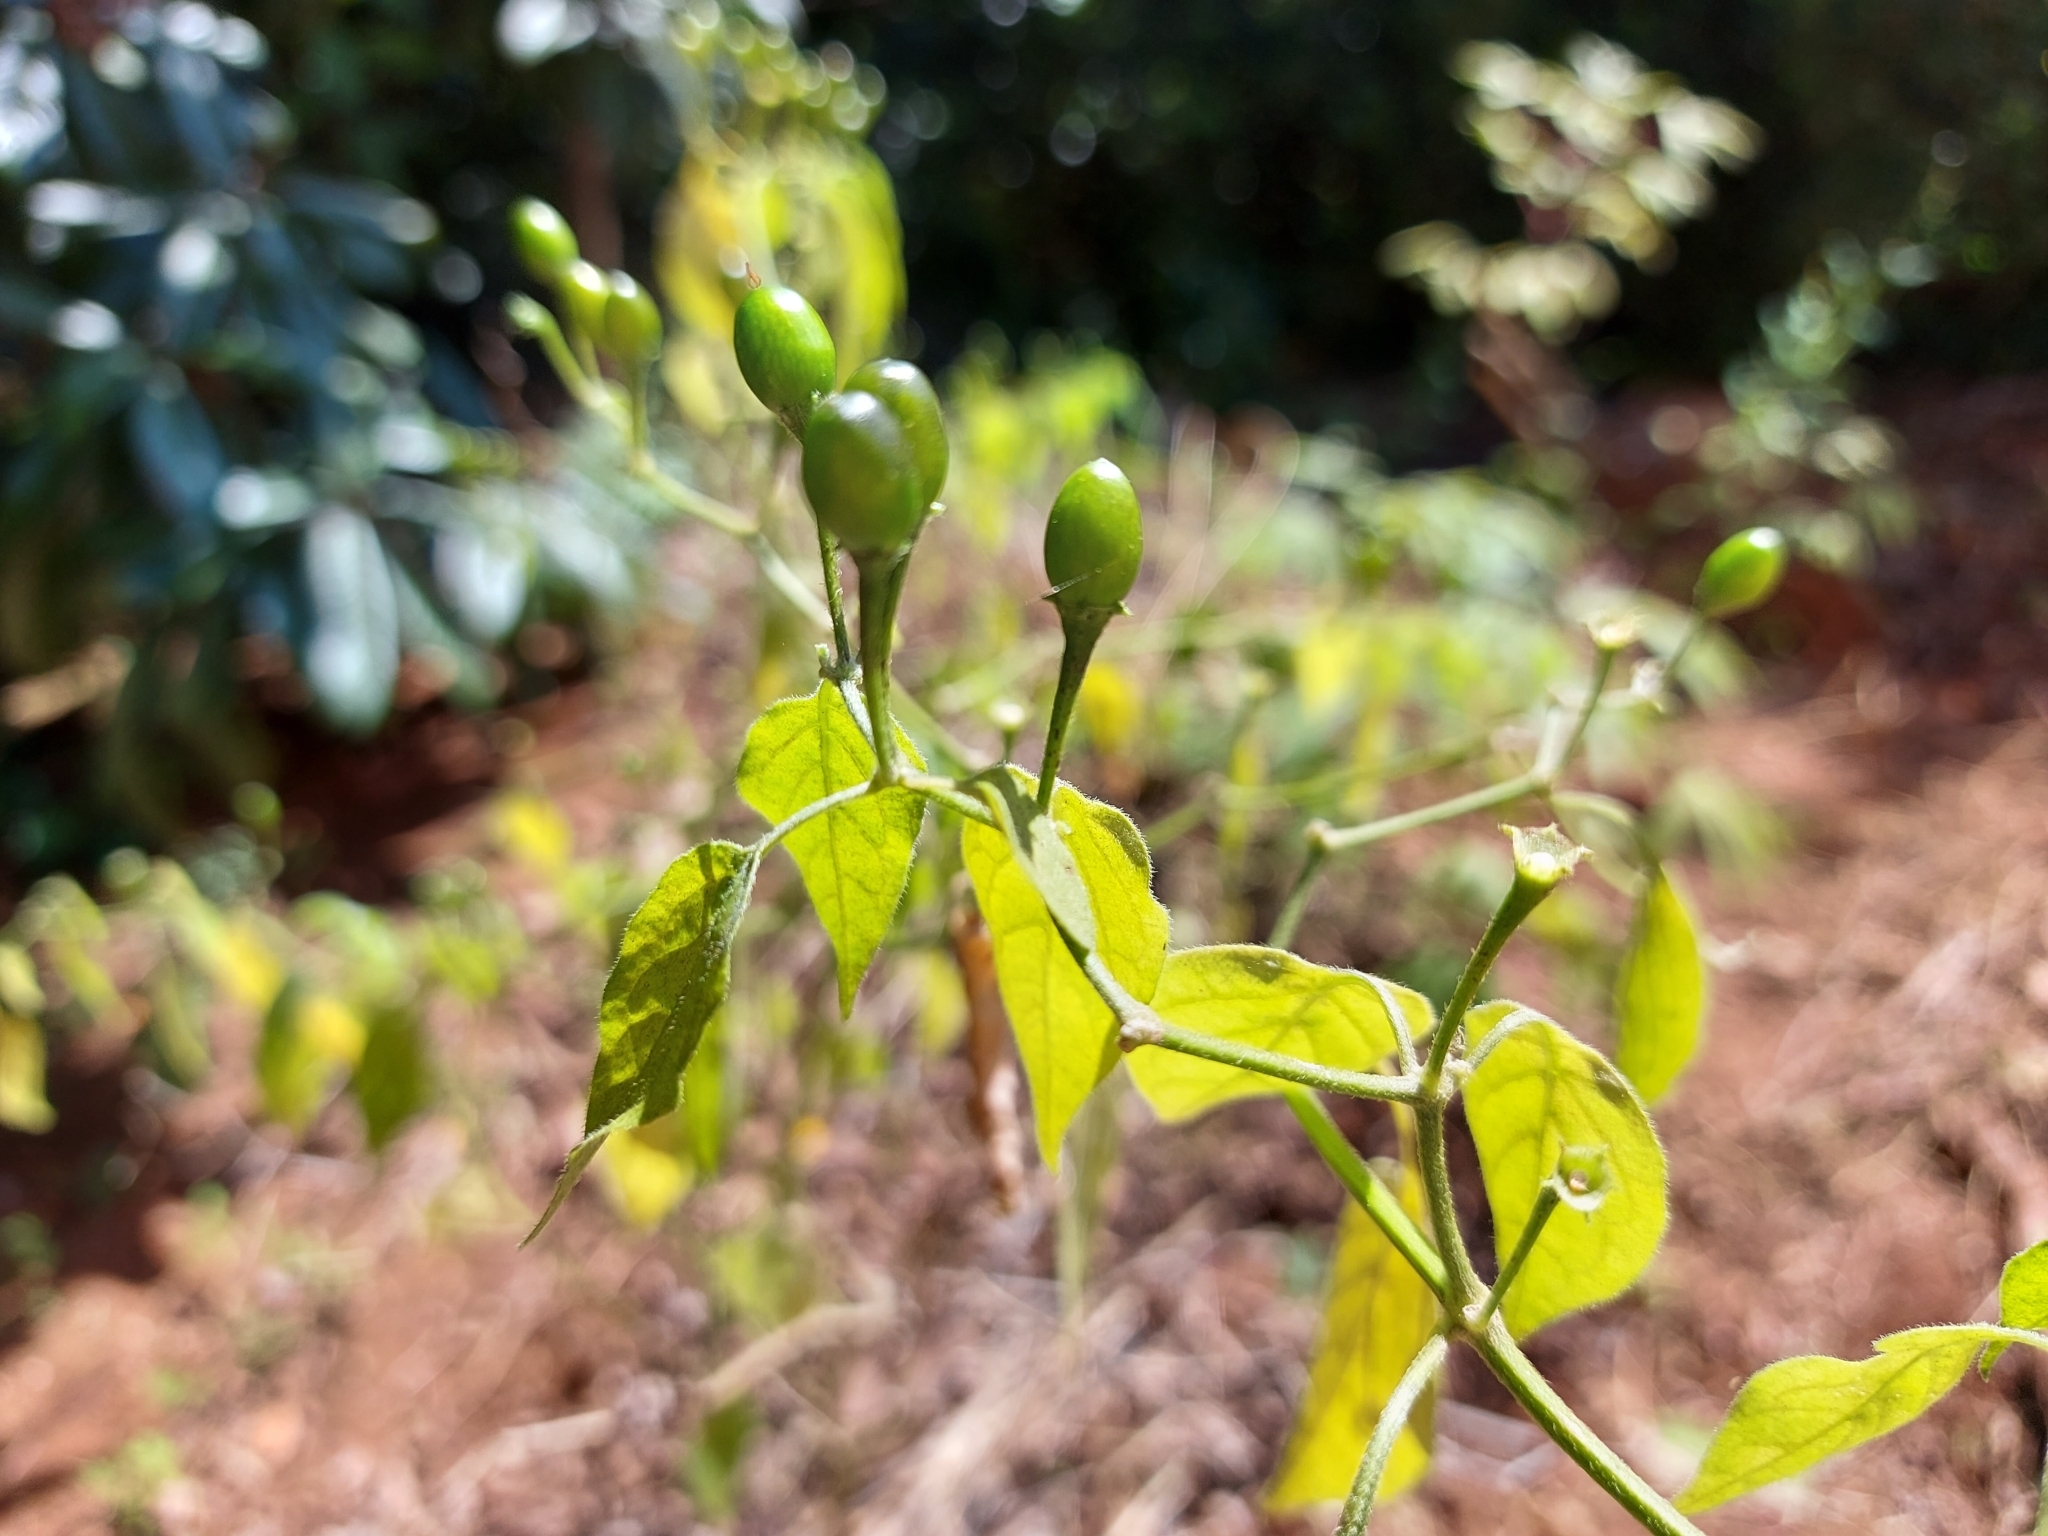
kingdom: Plantae
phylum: Tracheophyta
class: Magnoliopsida
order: Solanales
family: Solanaceae
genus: Capsicum
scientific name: Capsicum baccatum
